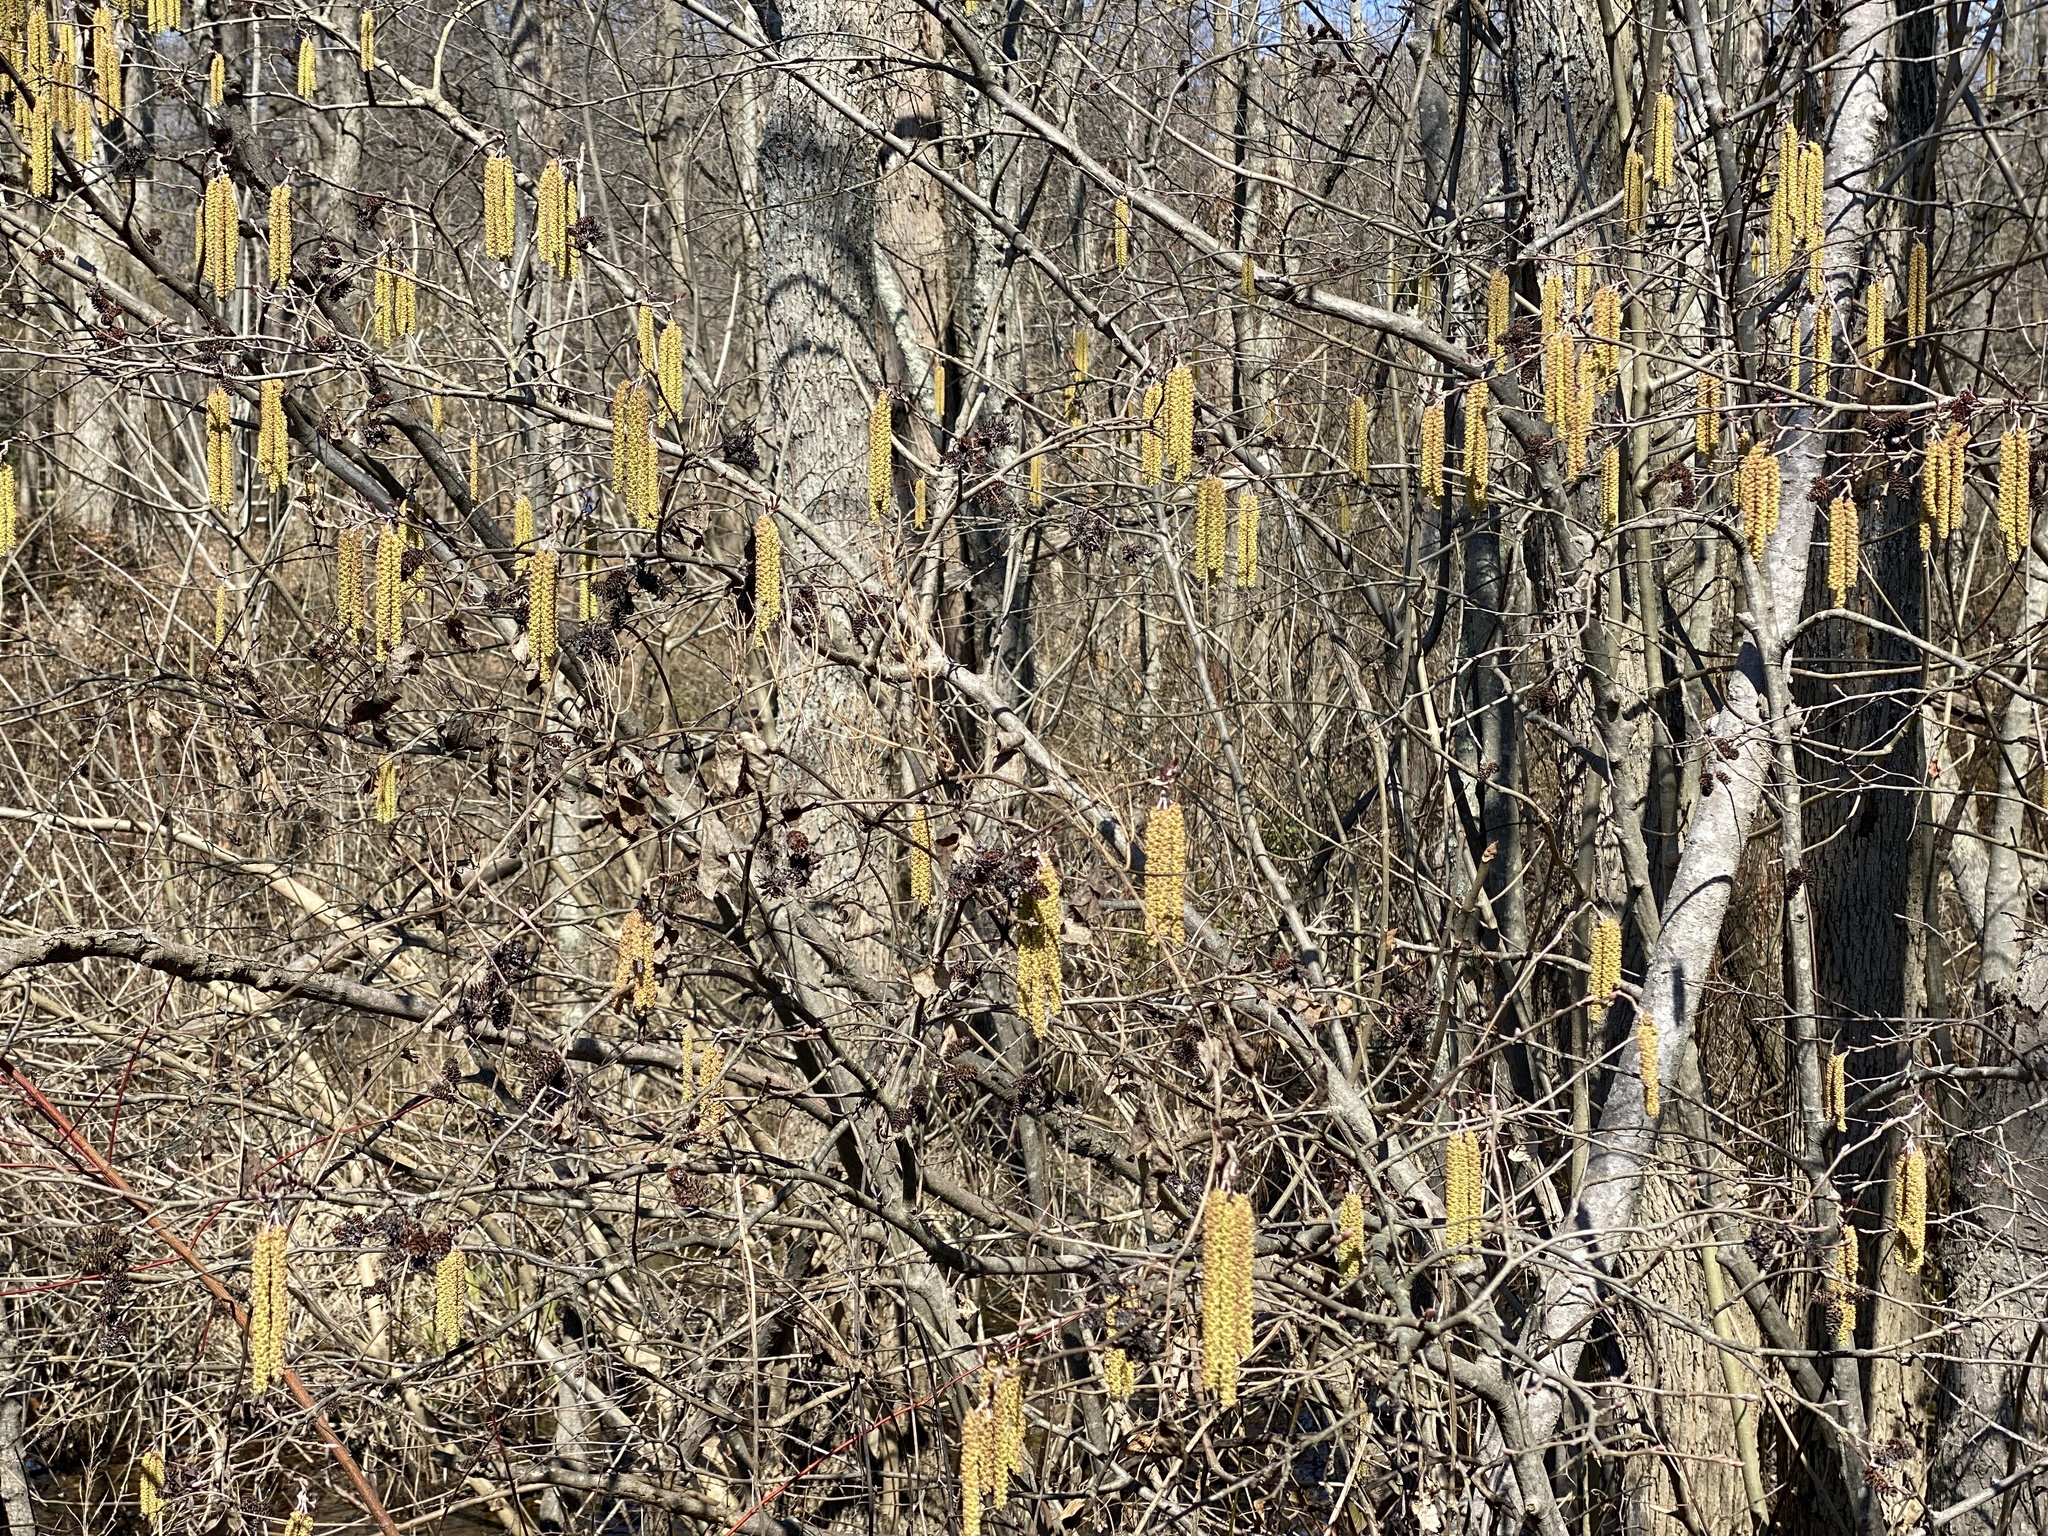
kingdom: Plantae
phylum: Tracheophyta
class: Magnoliopsida
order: Fagales
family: Betulaceae
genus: Alnus
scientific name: Alnus serrulata
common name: Hazel alder
